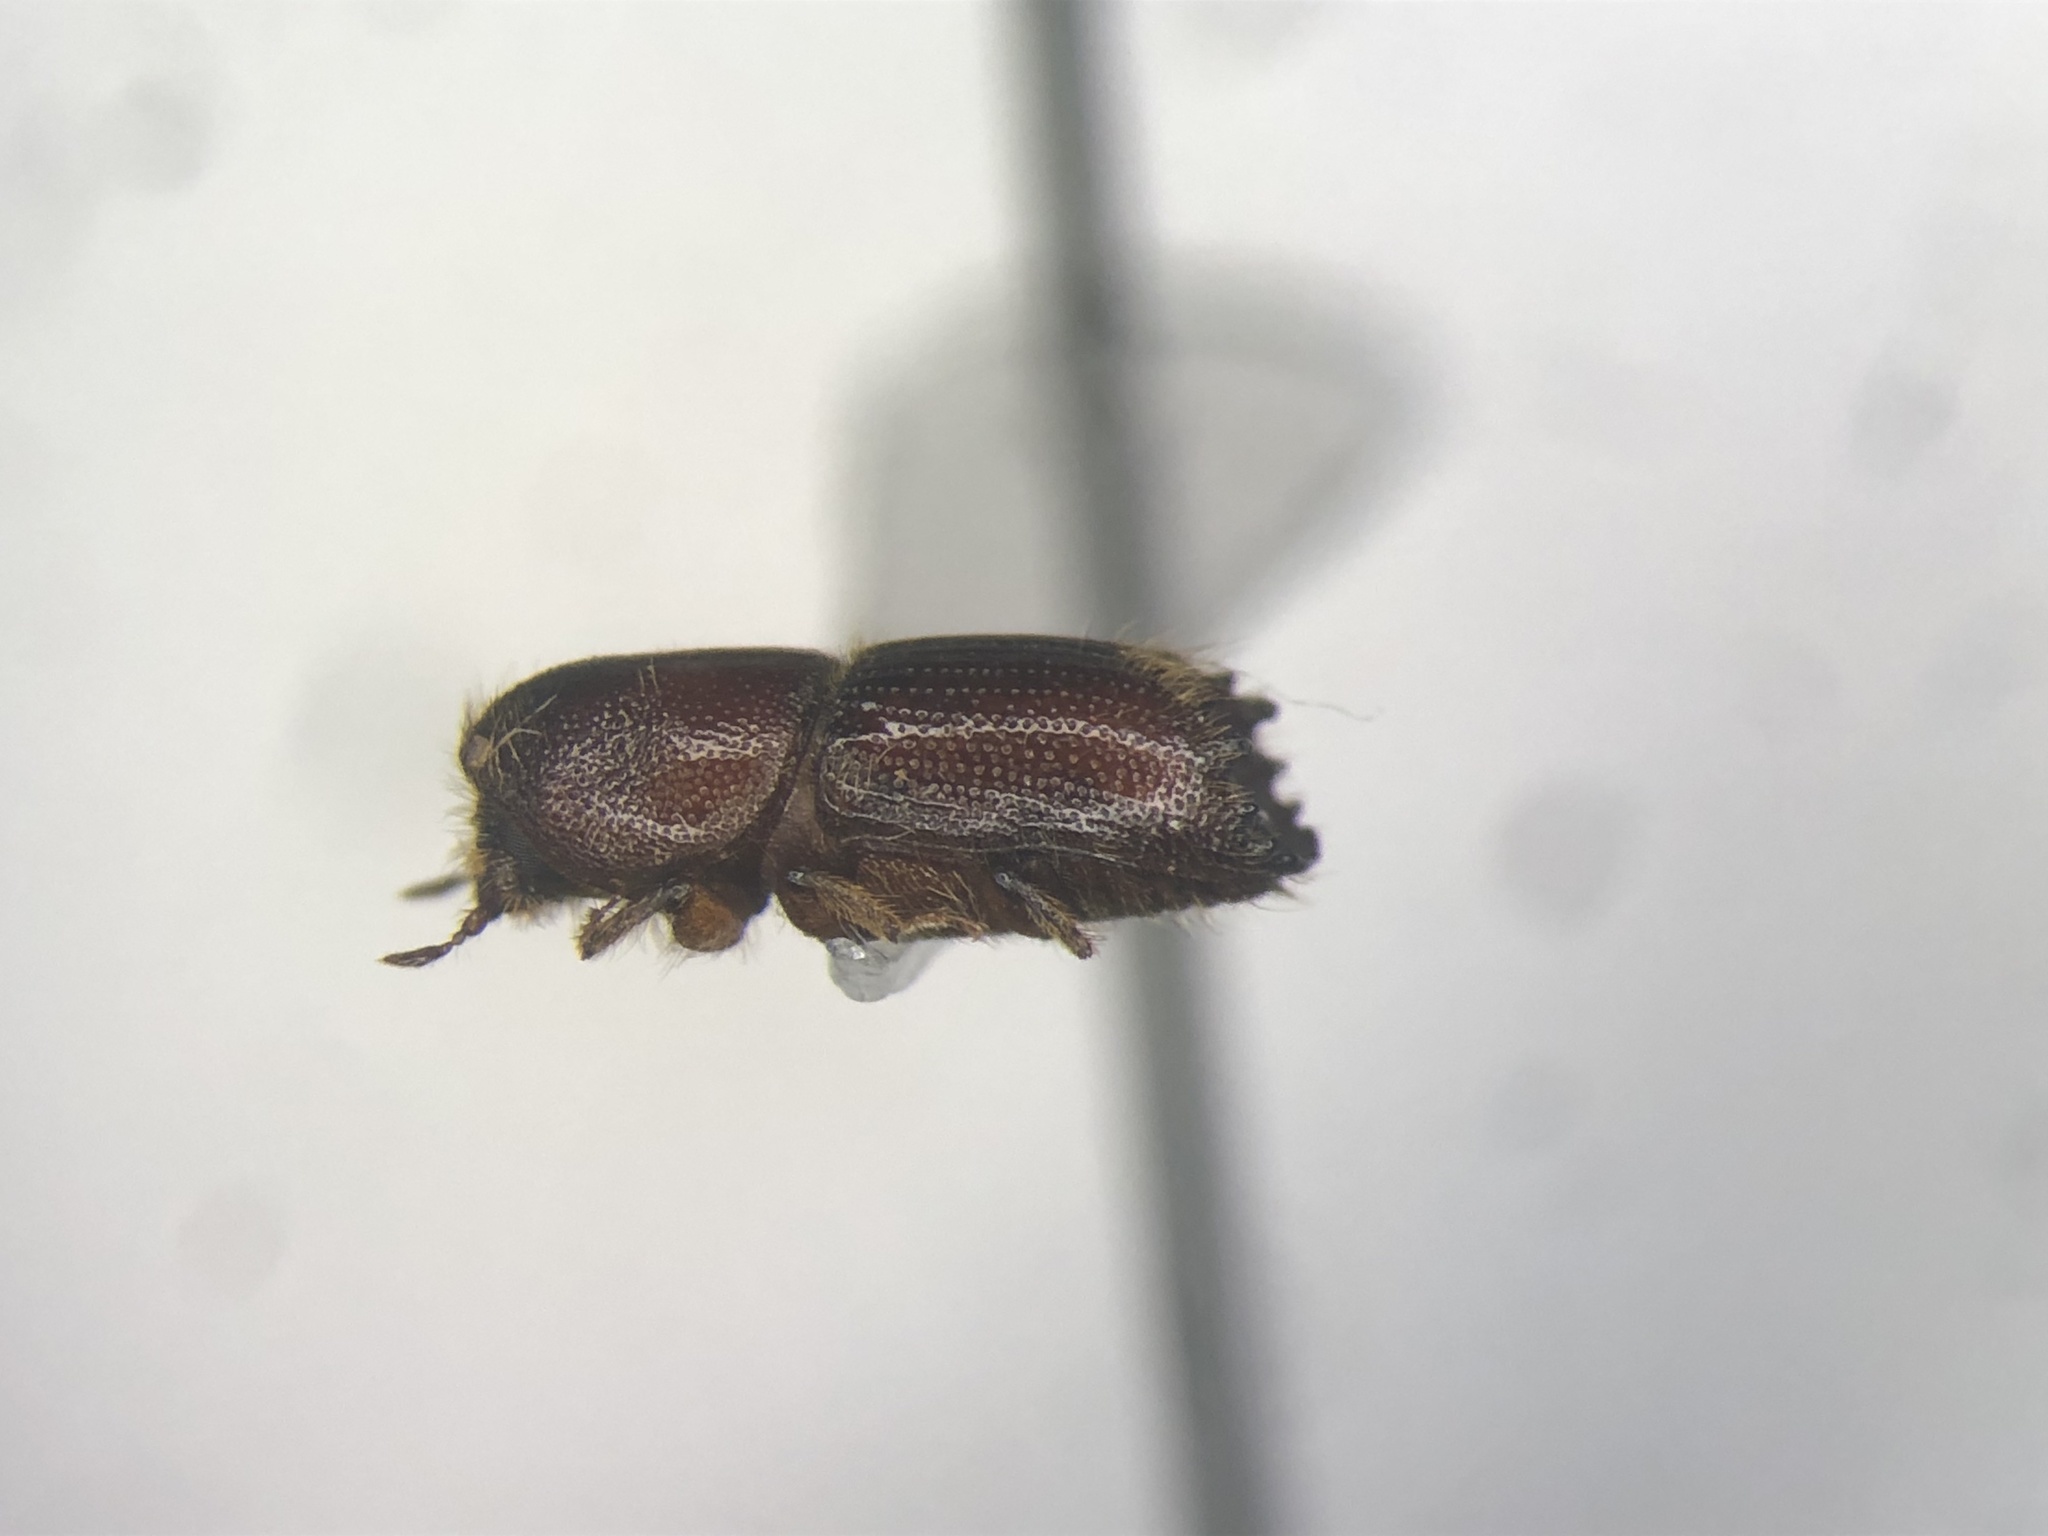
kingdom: Animalia
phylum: Arthropoda
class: Insecta
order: Coleoptera
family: Curculionidae
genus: Ips
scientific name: Ips grandicollis
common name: Eastern fivespined ips
